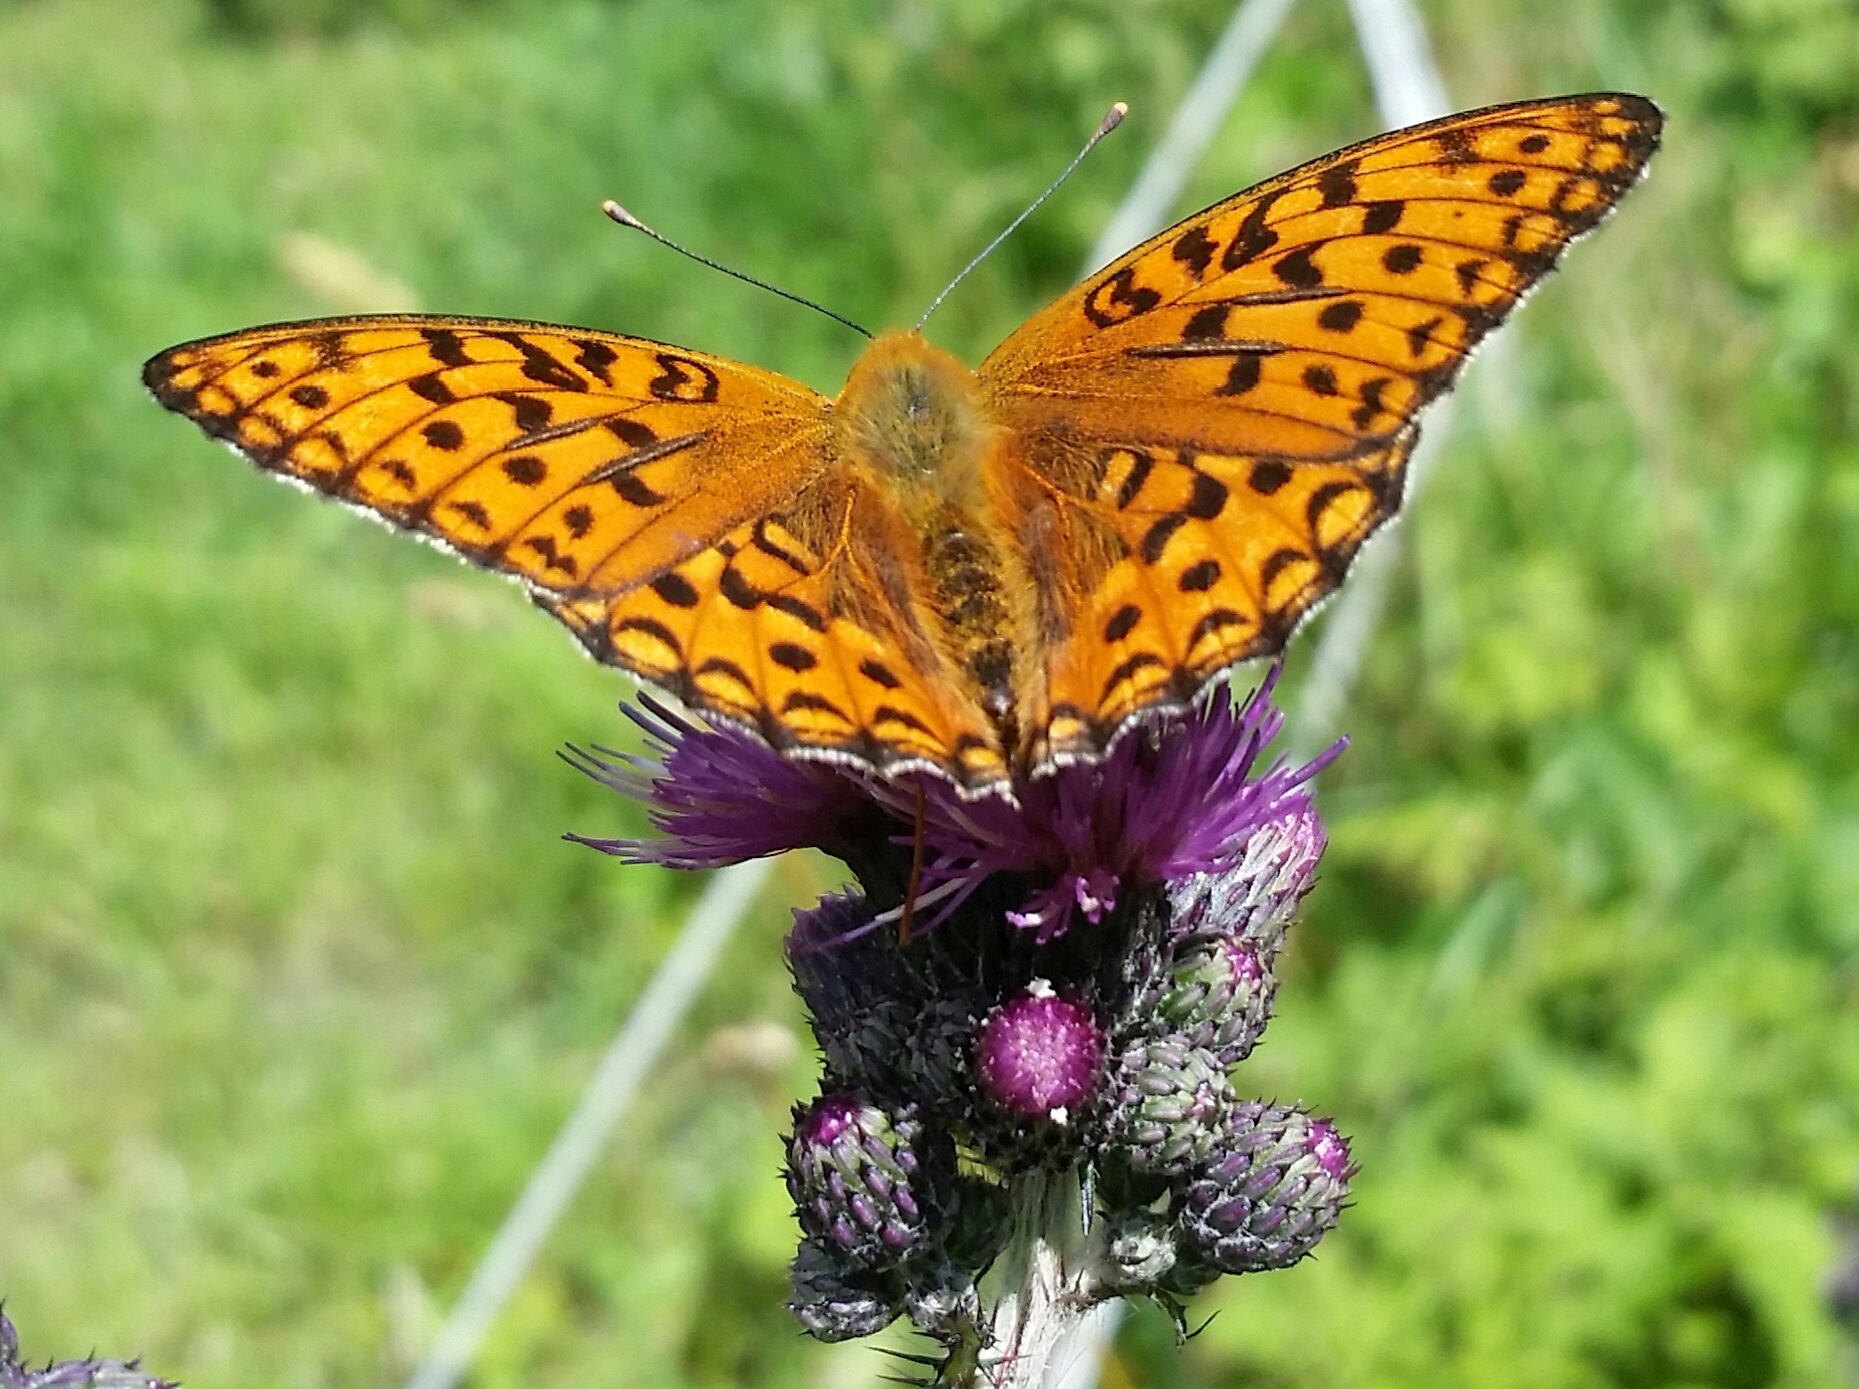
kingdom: Animalia
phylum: Arthropoda
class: Insecta
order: Lepidoptera
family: Nymphalidae
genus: Fabriciana
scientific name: Fabriciana adippe
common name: High brown fritillary
